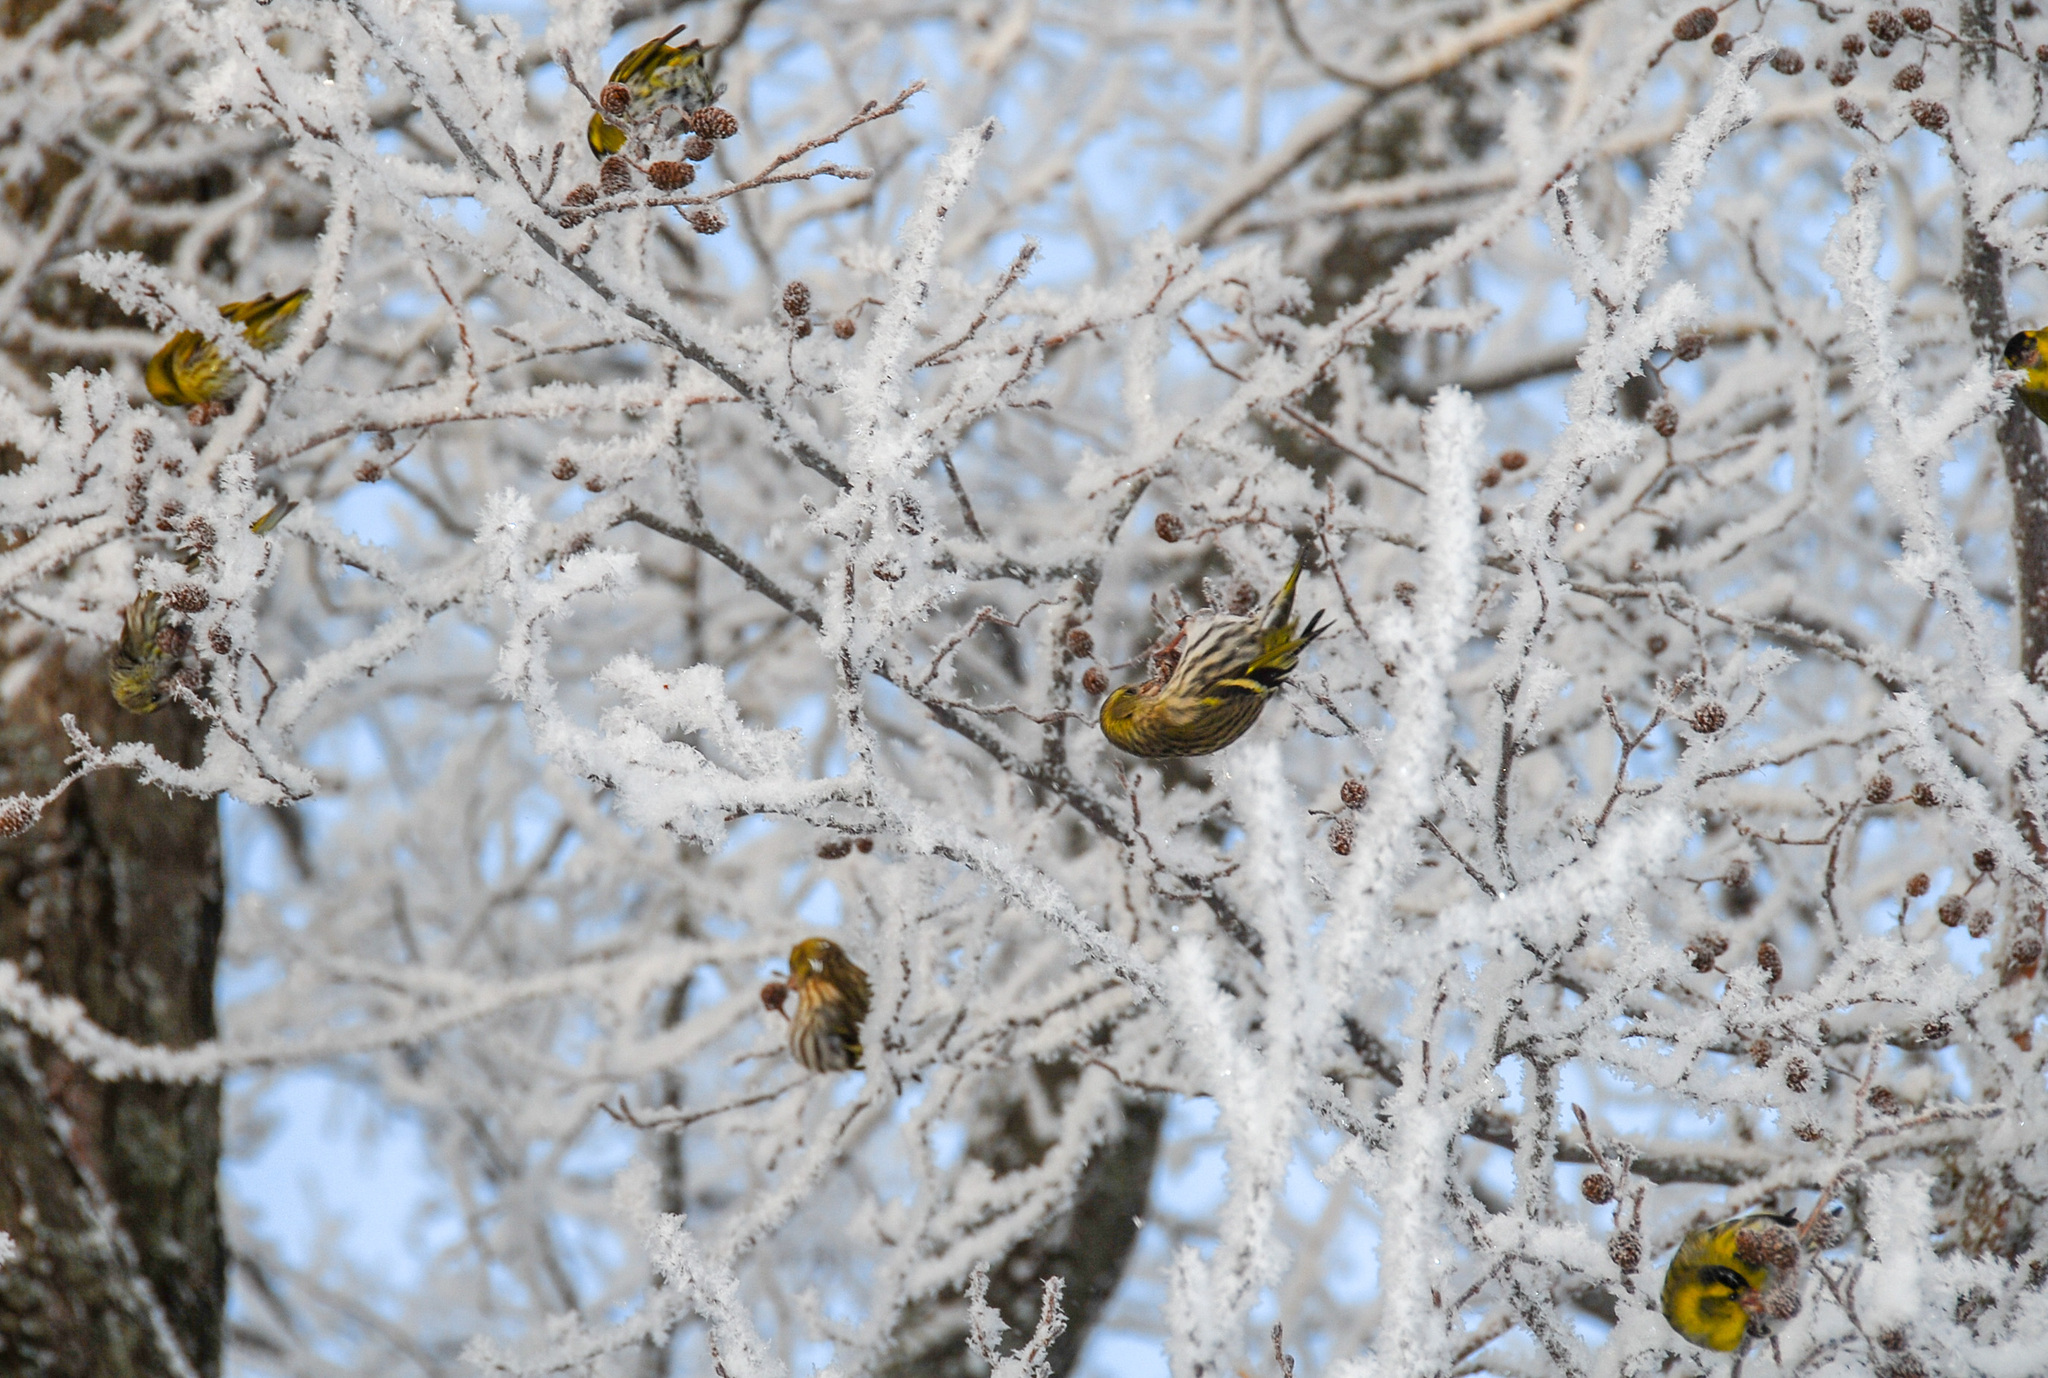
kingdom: Animalia
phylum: Chordata
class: Aves
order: Passeriformes
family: Fringillidae
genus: Spinus
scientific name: Spinus spinus
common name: Eurasian siskin
